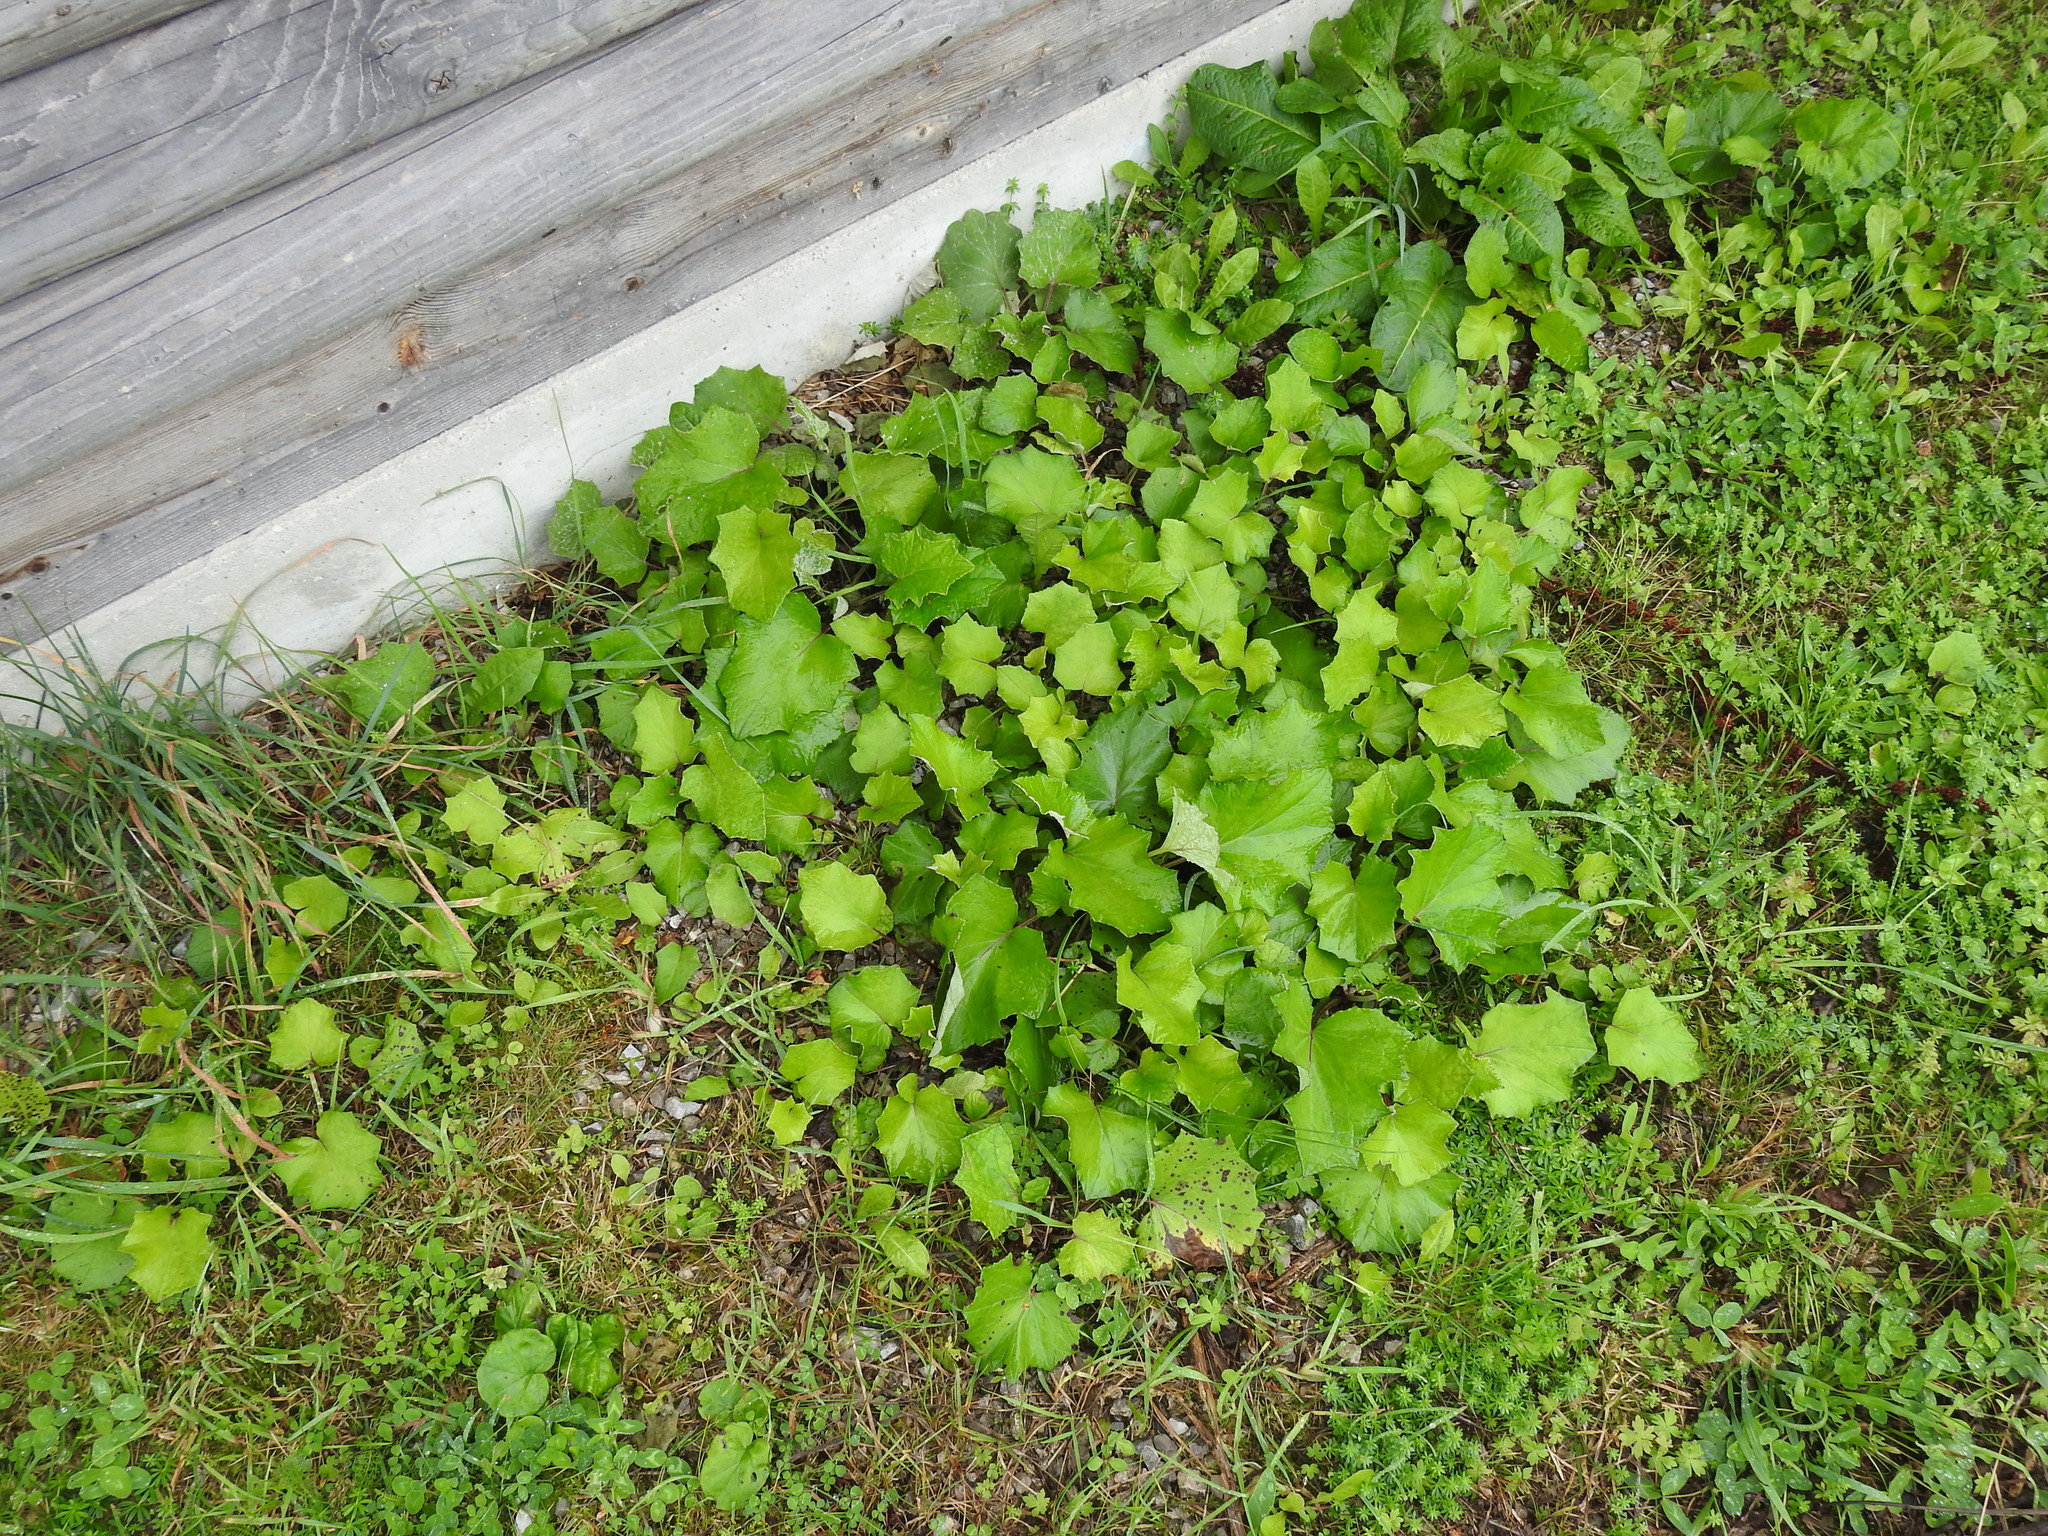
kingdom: Plantae
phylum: Tracheophyta
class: Magnoliopsida
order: Asterales
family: Asteraceae
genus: Tussilago
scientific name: Tussilago farfara
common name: Coltsfoot
